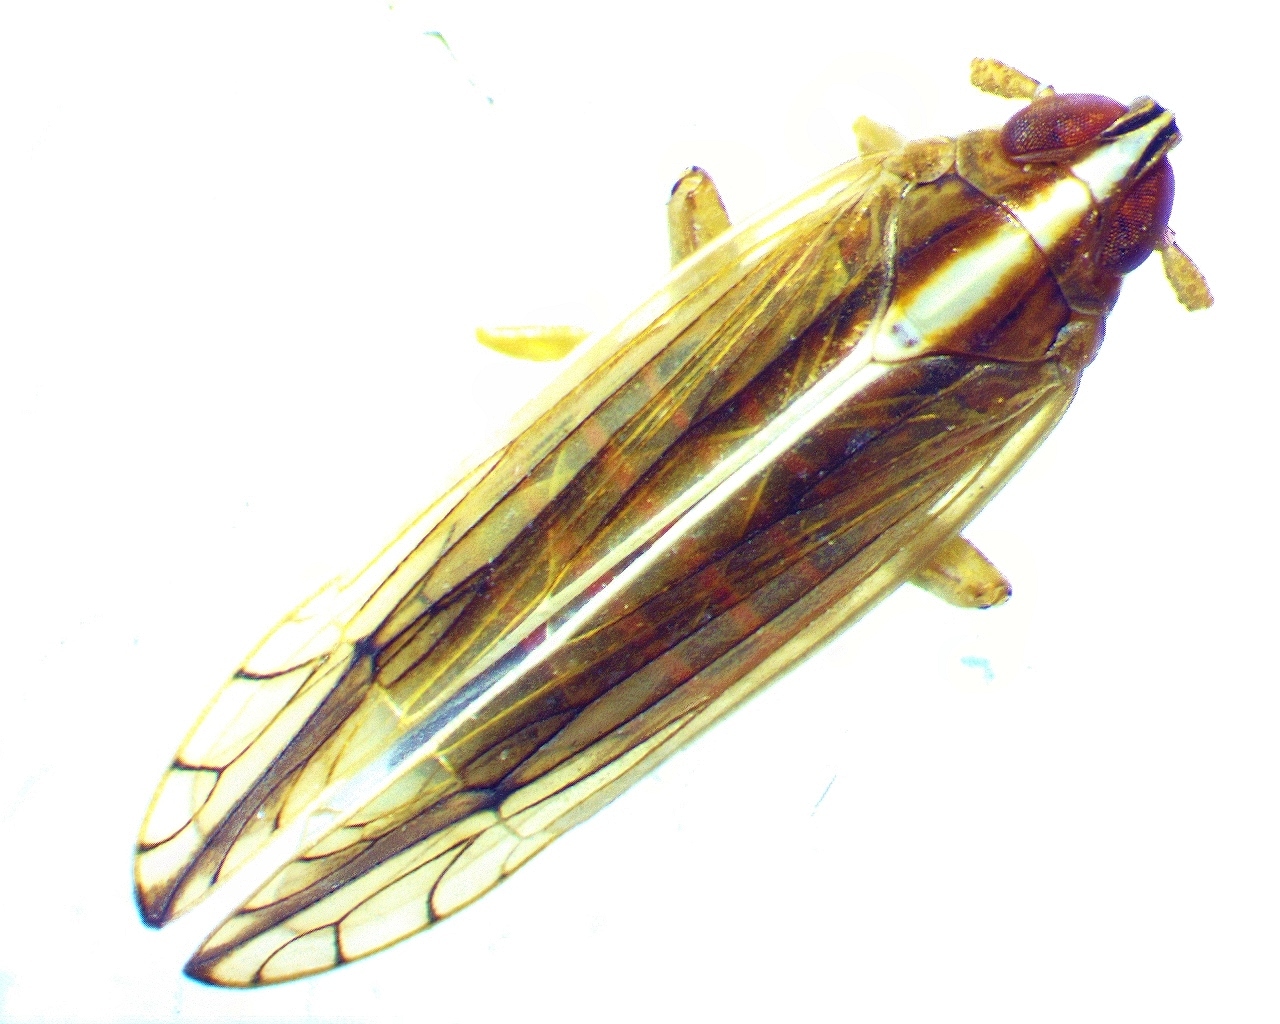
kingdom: Animalia
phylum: Arthropoda
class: Insecta
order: Hemiptera
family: Delphacidae
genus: Stenocranus
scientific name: Stenocranus vittatus
